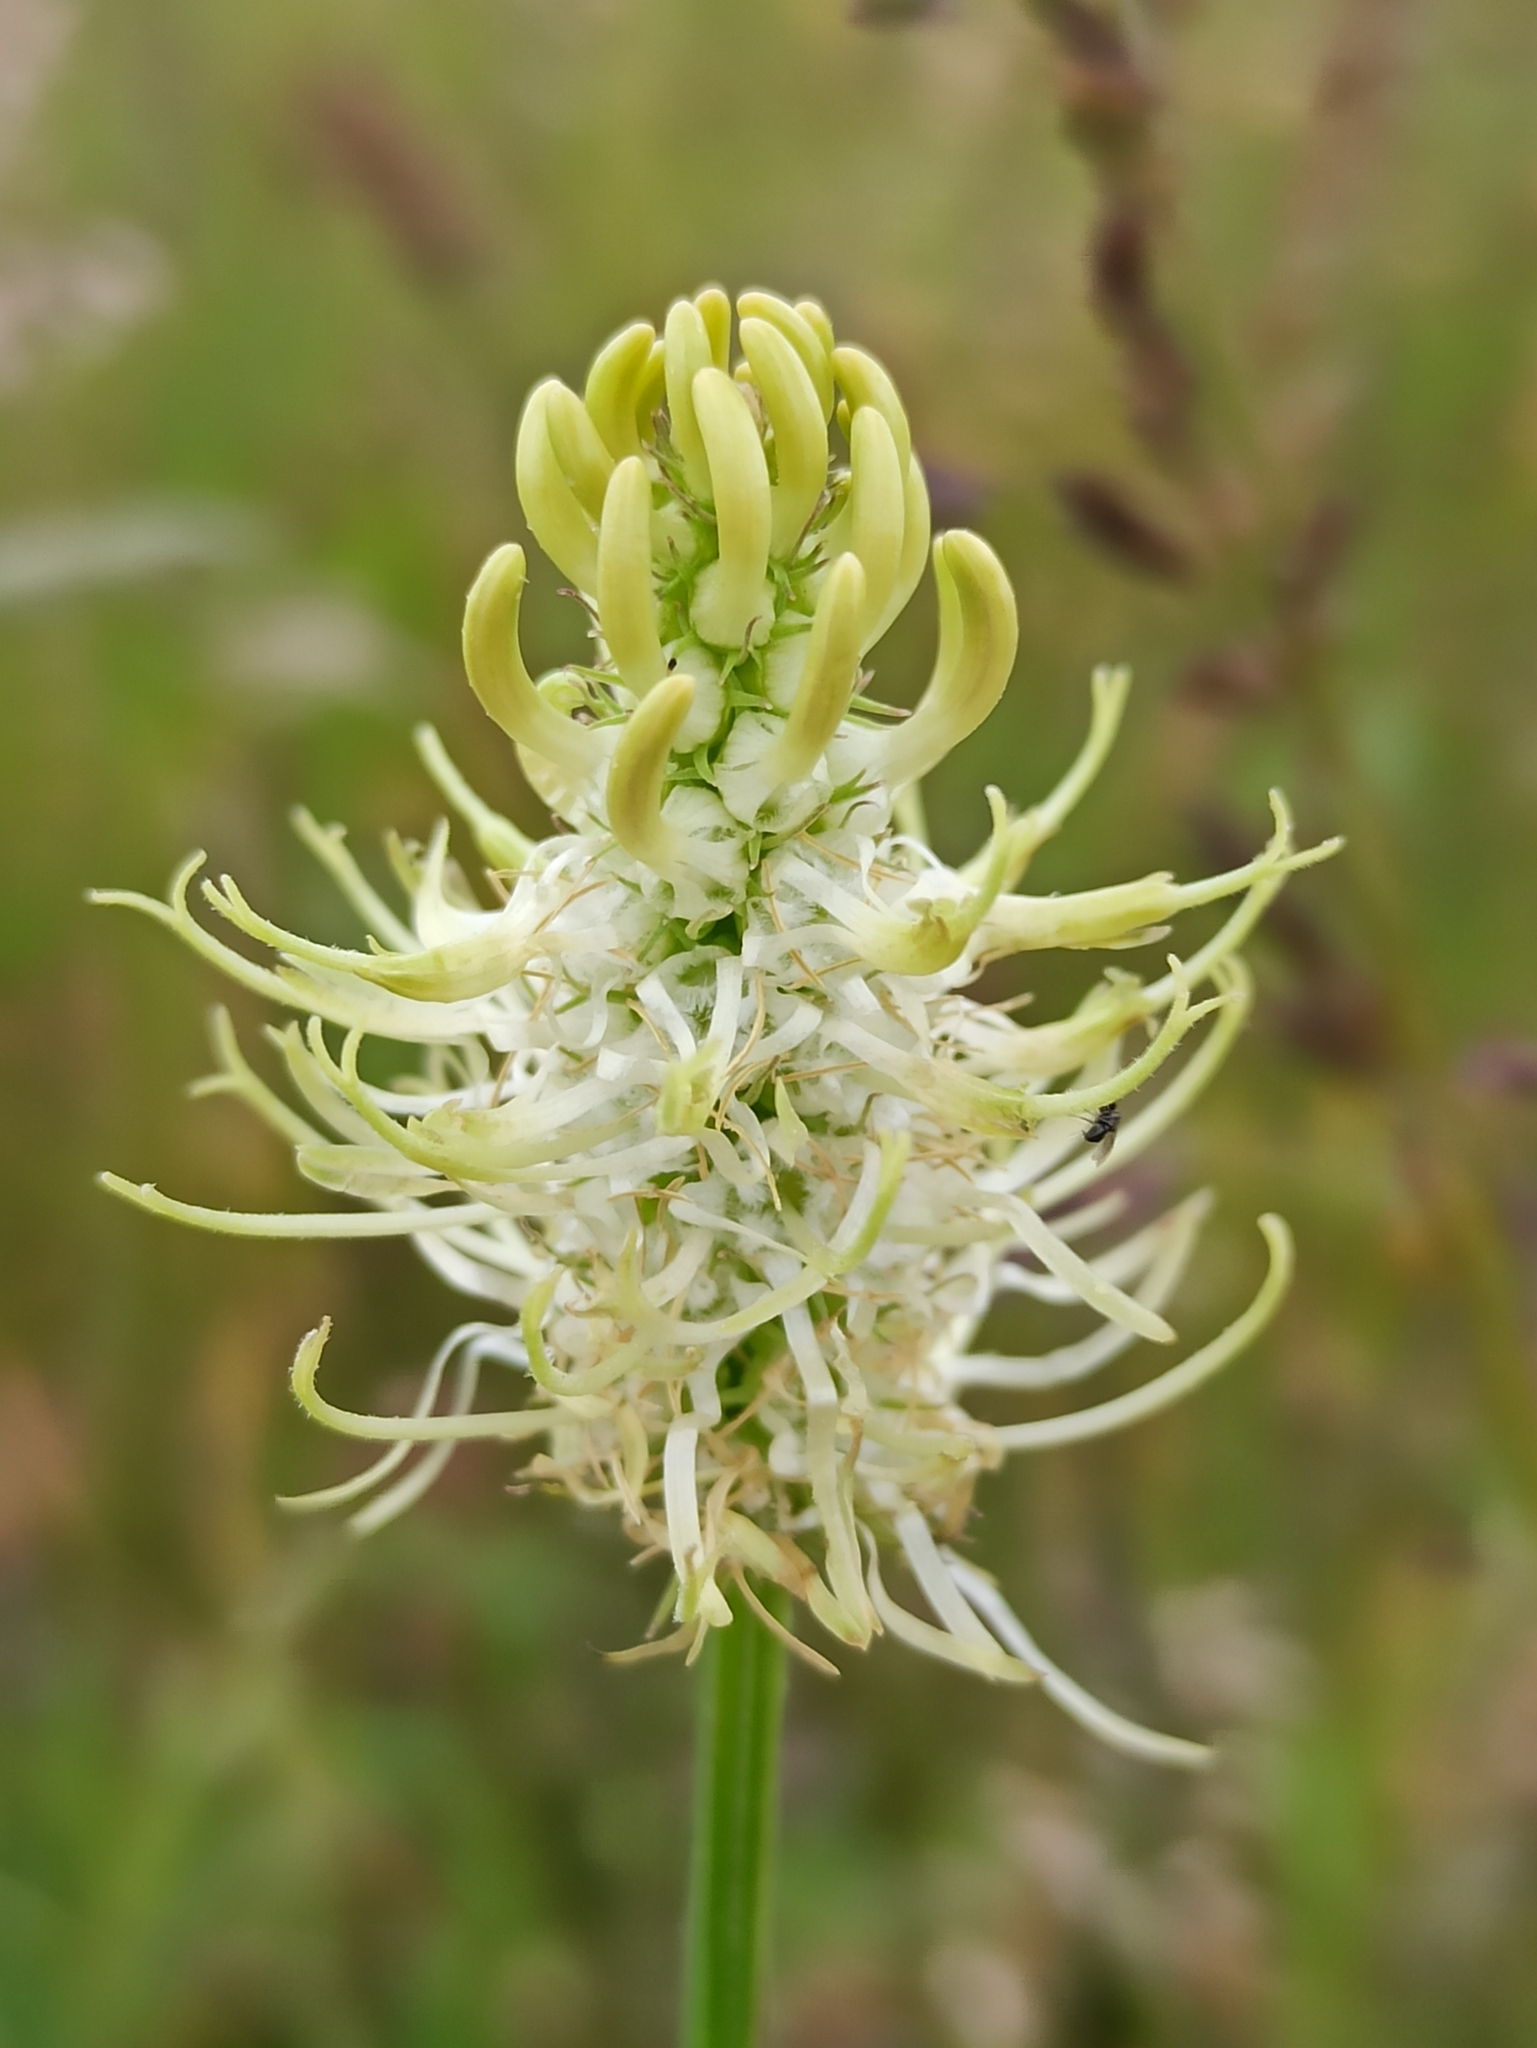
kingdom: Plantae
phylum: Tracheophyta
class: Magnoliopsida
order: Asterales
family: Campanulaceae
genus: Phyteuma
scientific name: Phyteuma spicatum
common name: Spiked rampion
